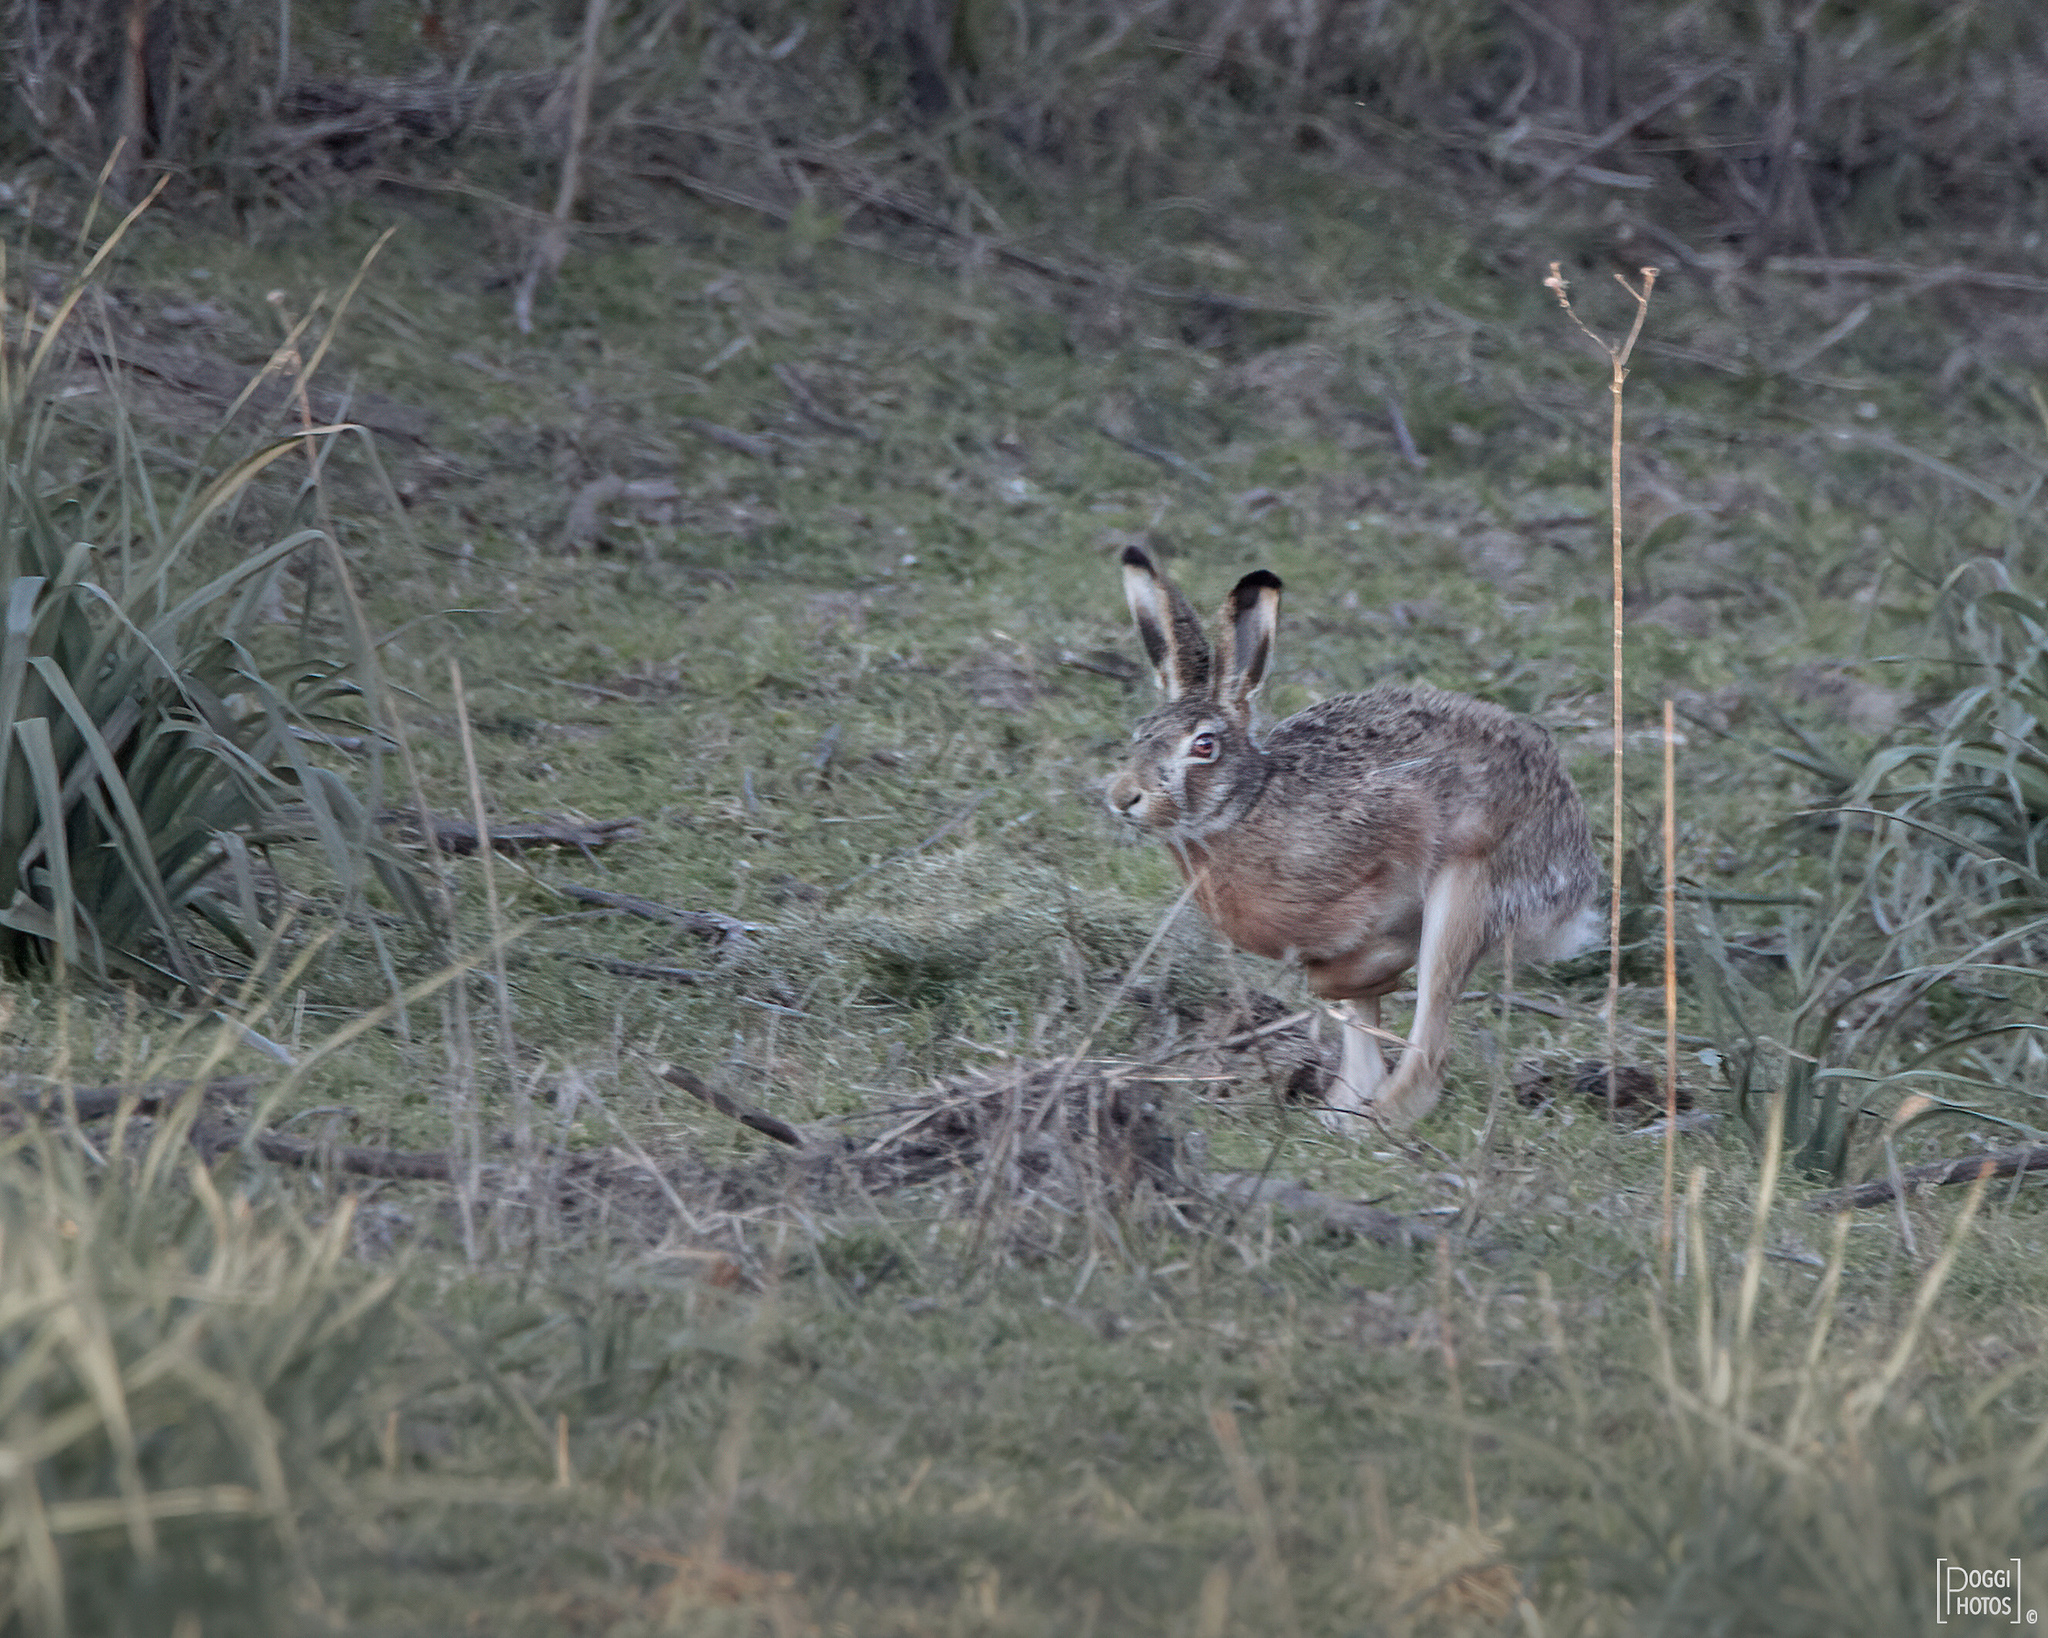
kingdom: Animalia
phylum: Chordata
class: Mammalia
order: Lagomorpha
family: Leporidae
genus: Lepus
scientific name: Lepus europaeus
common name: European hare
